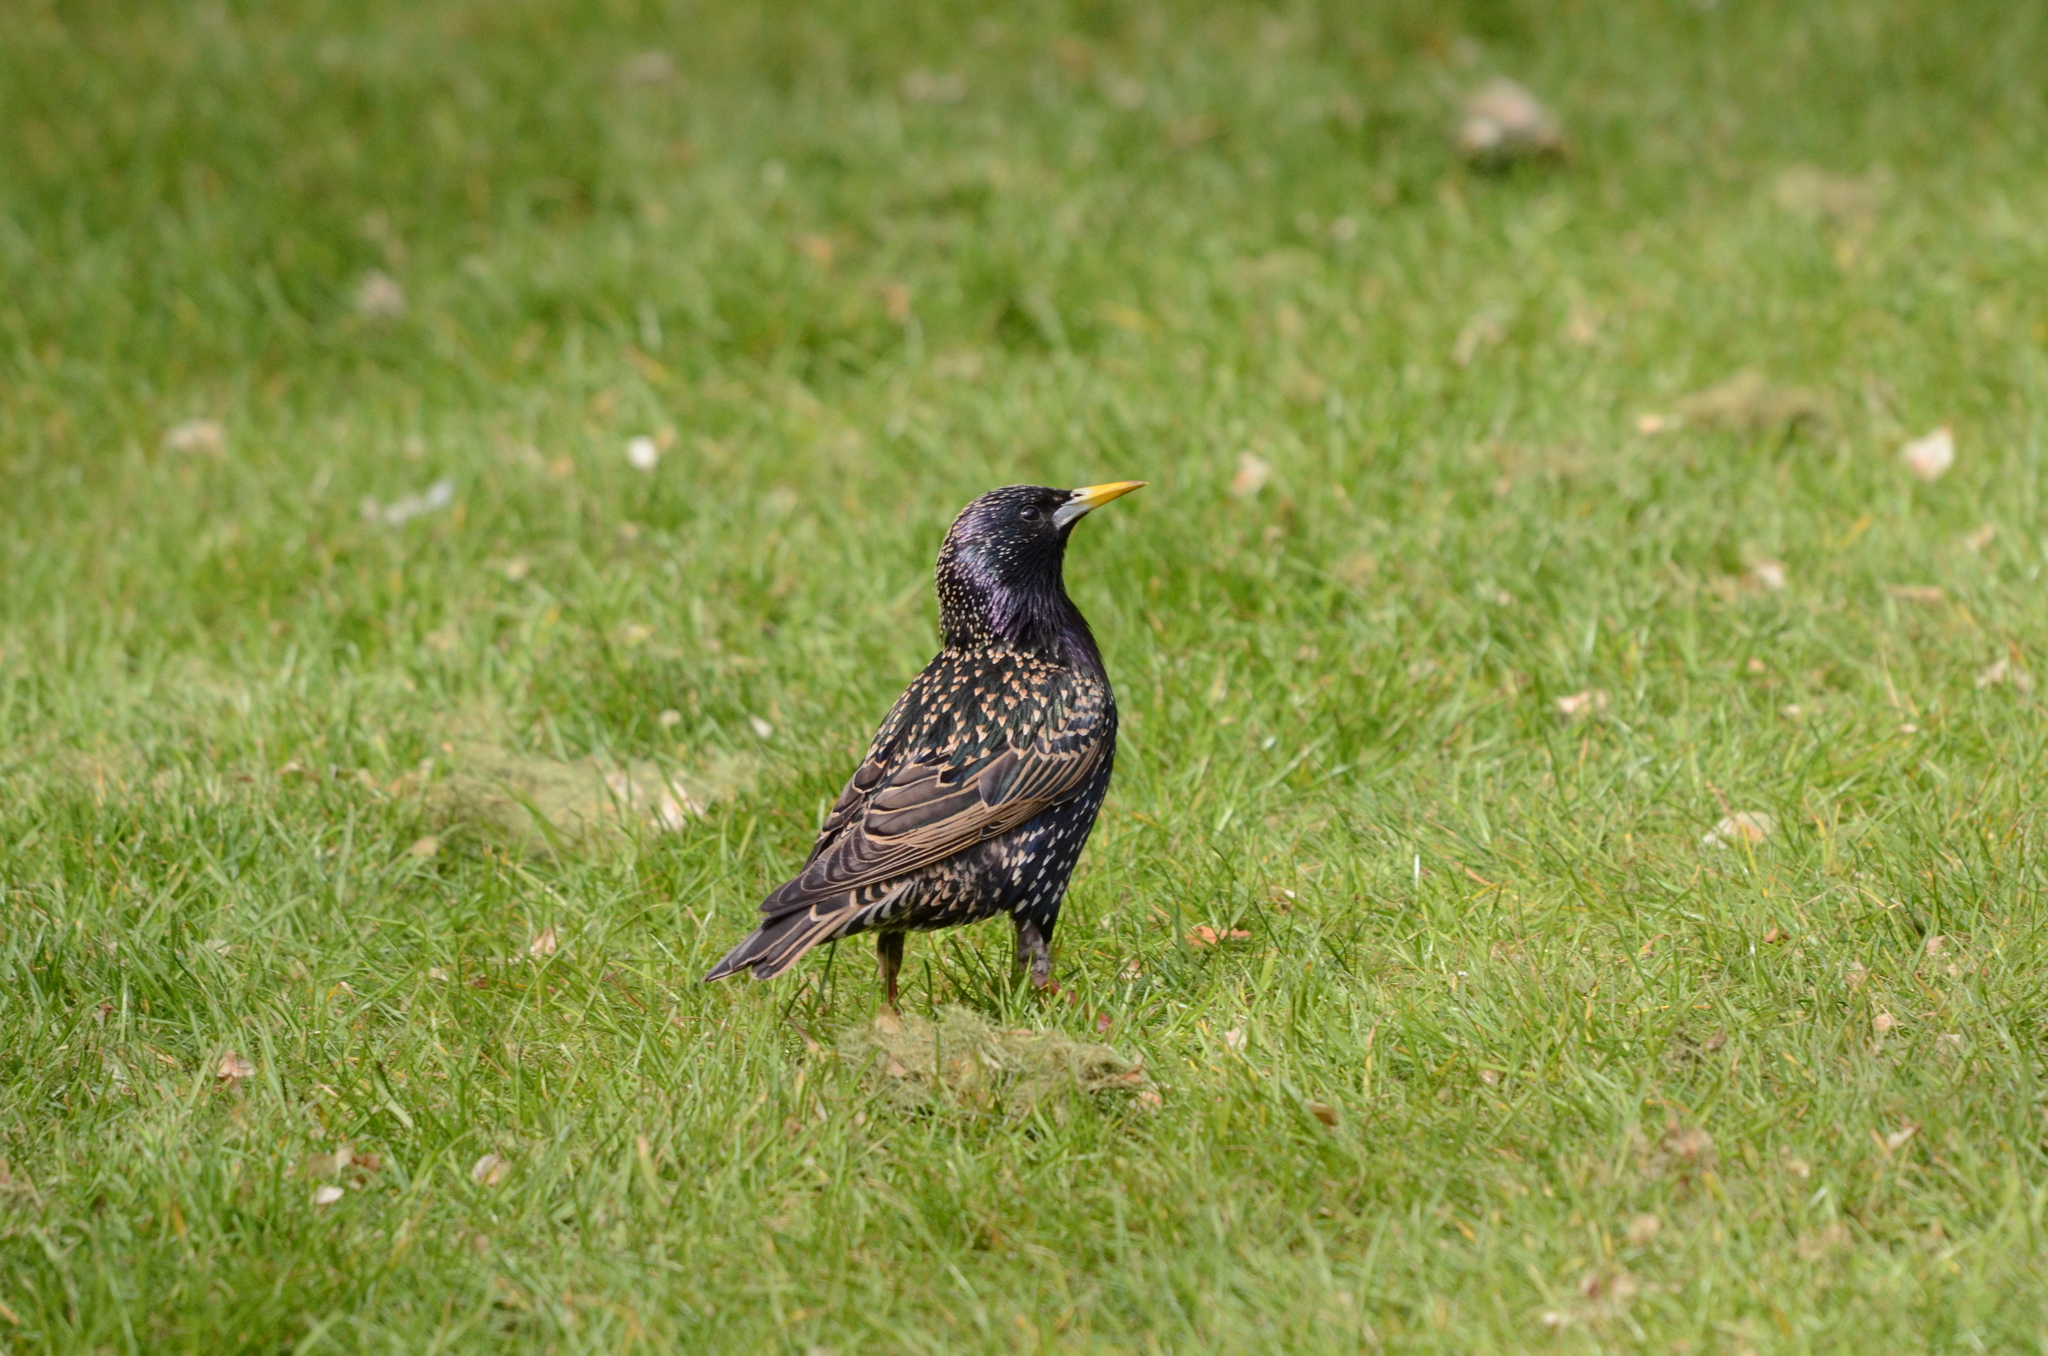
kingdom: Animalia
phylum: Chordata
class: Aves
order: Passeriformes
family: Sturnidae
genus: Sturnus
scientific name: Sturnus vulgaris
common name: Common starling
